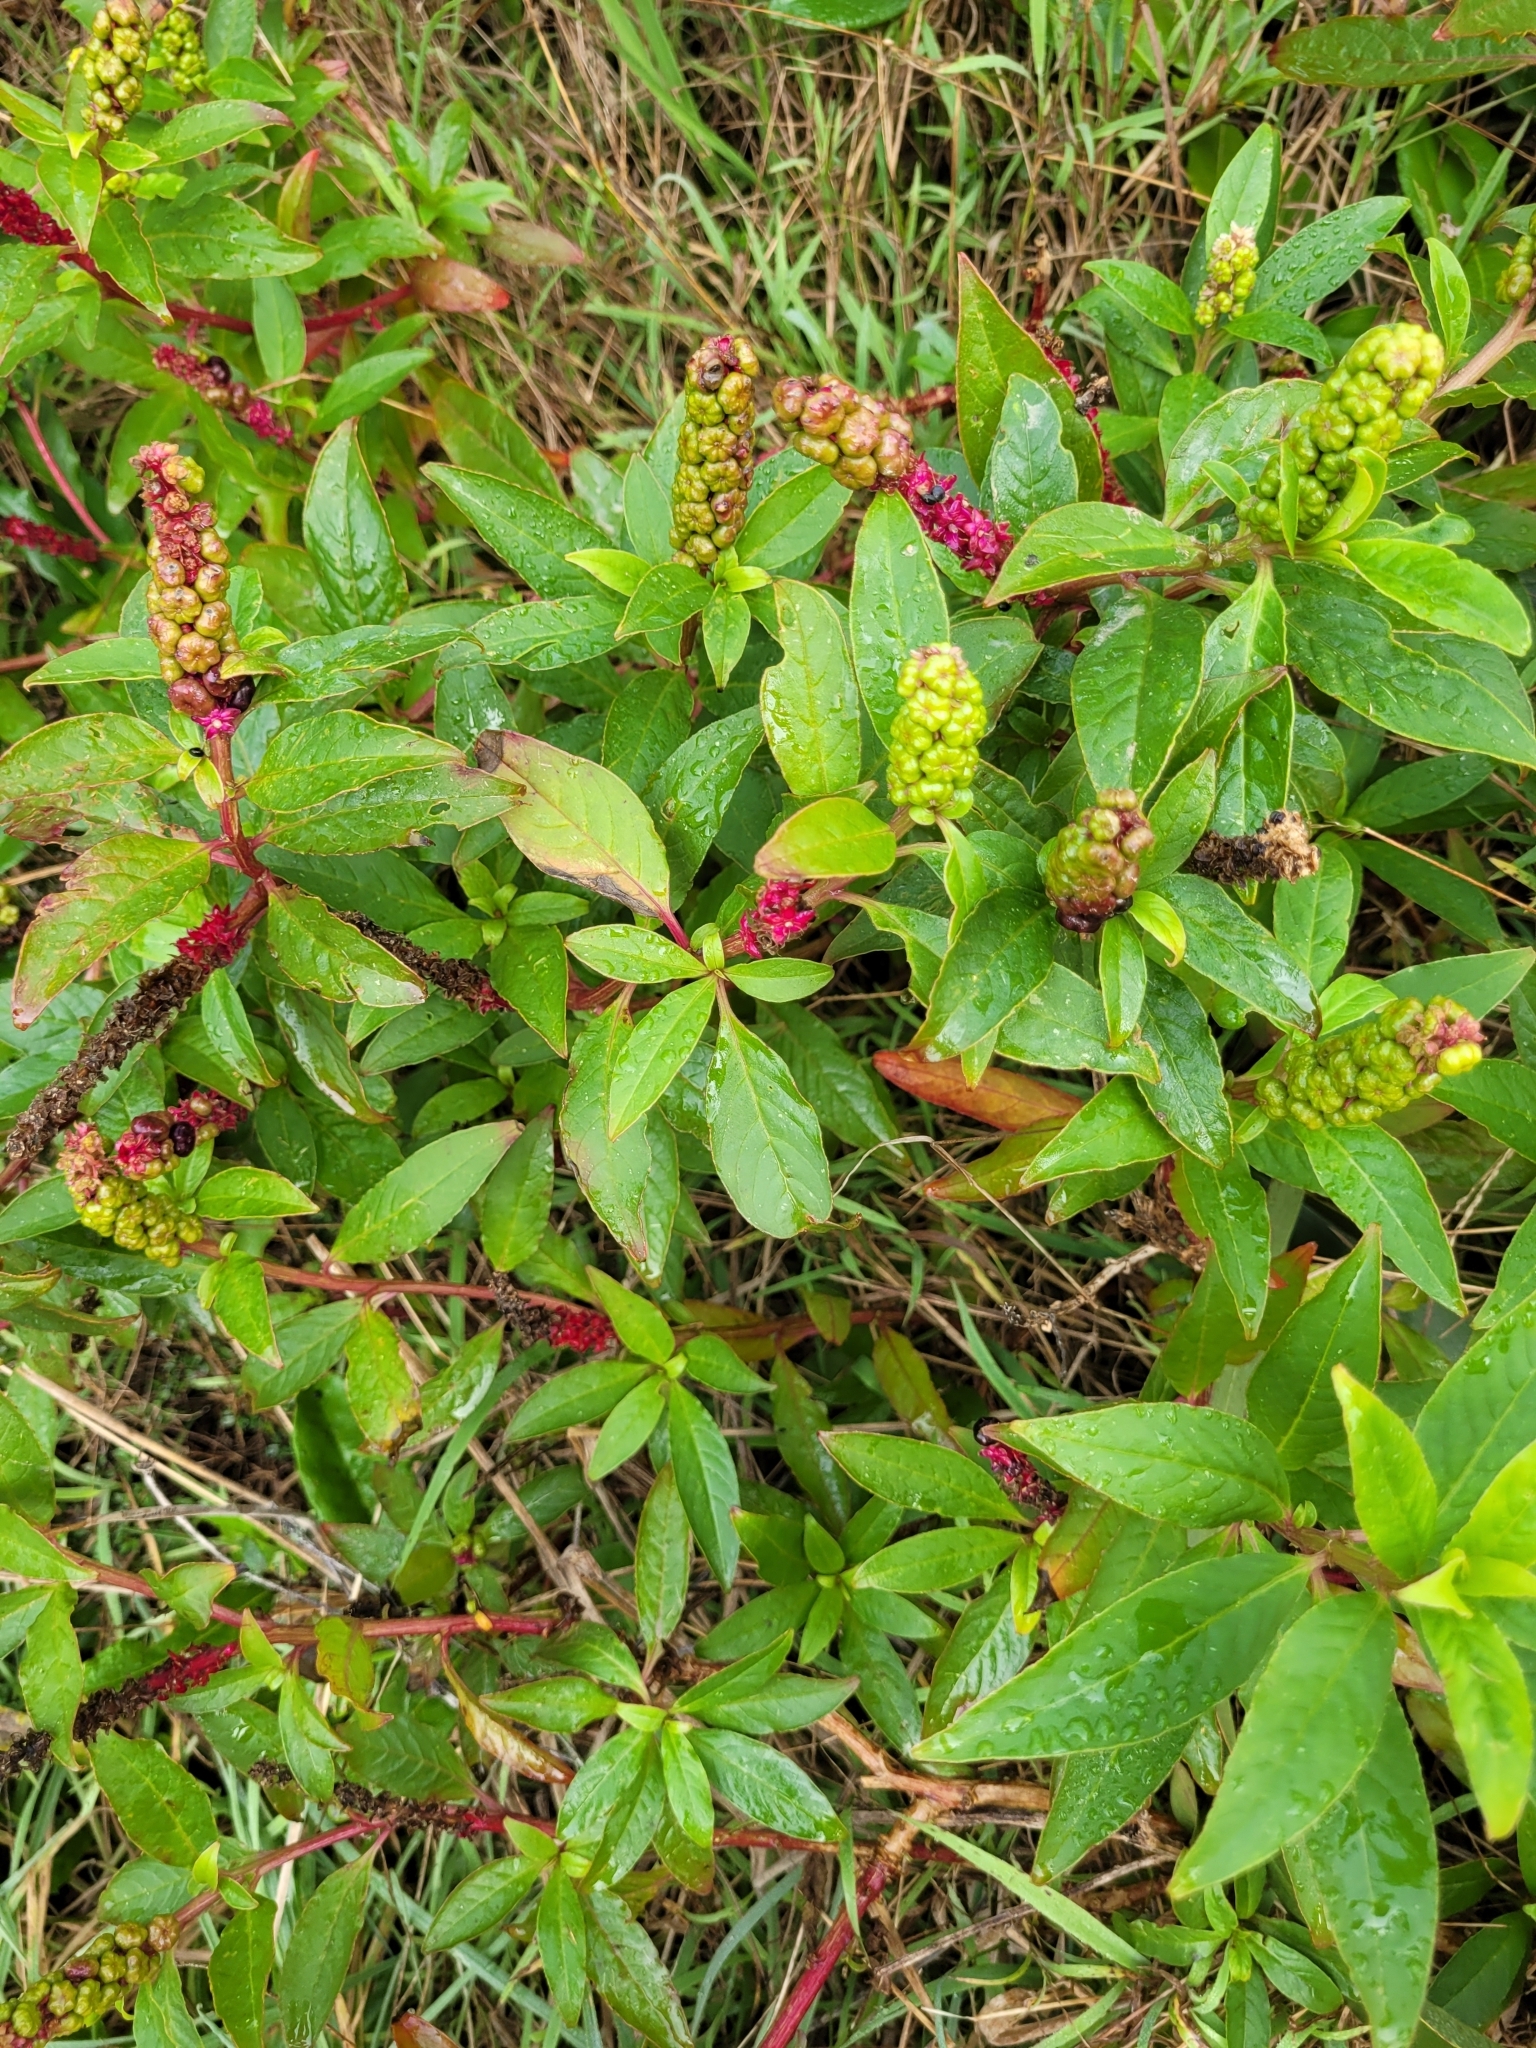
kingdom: Plantae
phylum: Tracheophyta
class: Magnoliopsida
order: Caryophyllales
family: Phytolaccaceae
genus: Phytolacca
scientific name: Phytolacca icosandra
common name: Button pokeweed
